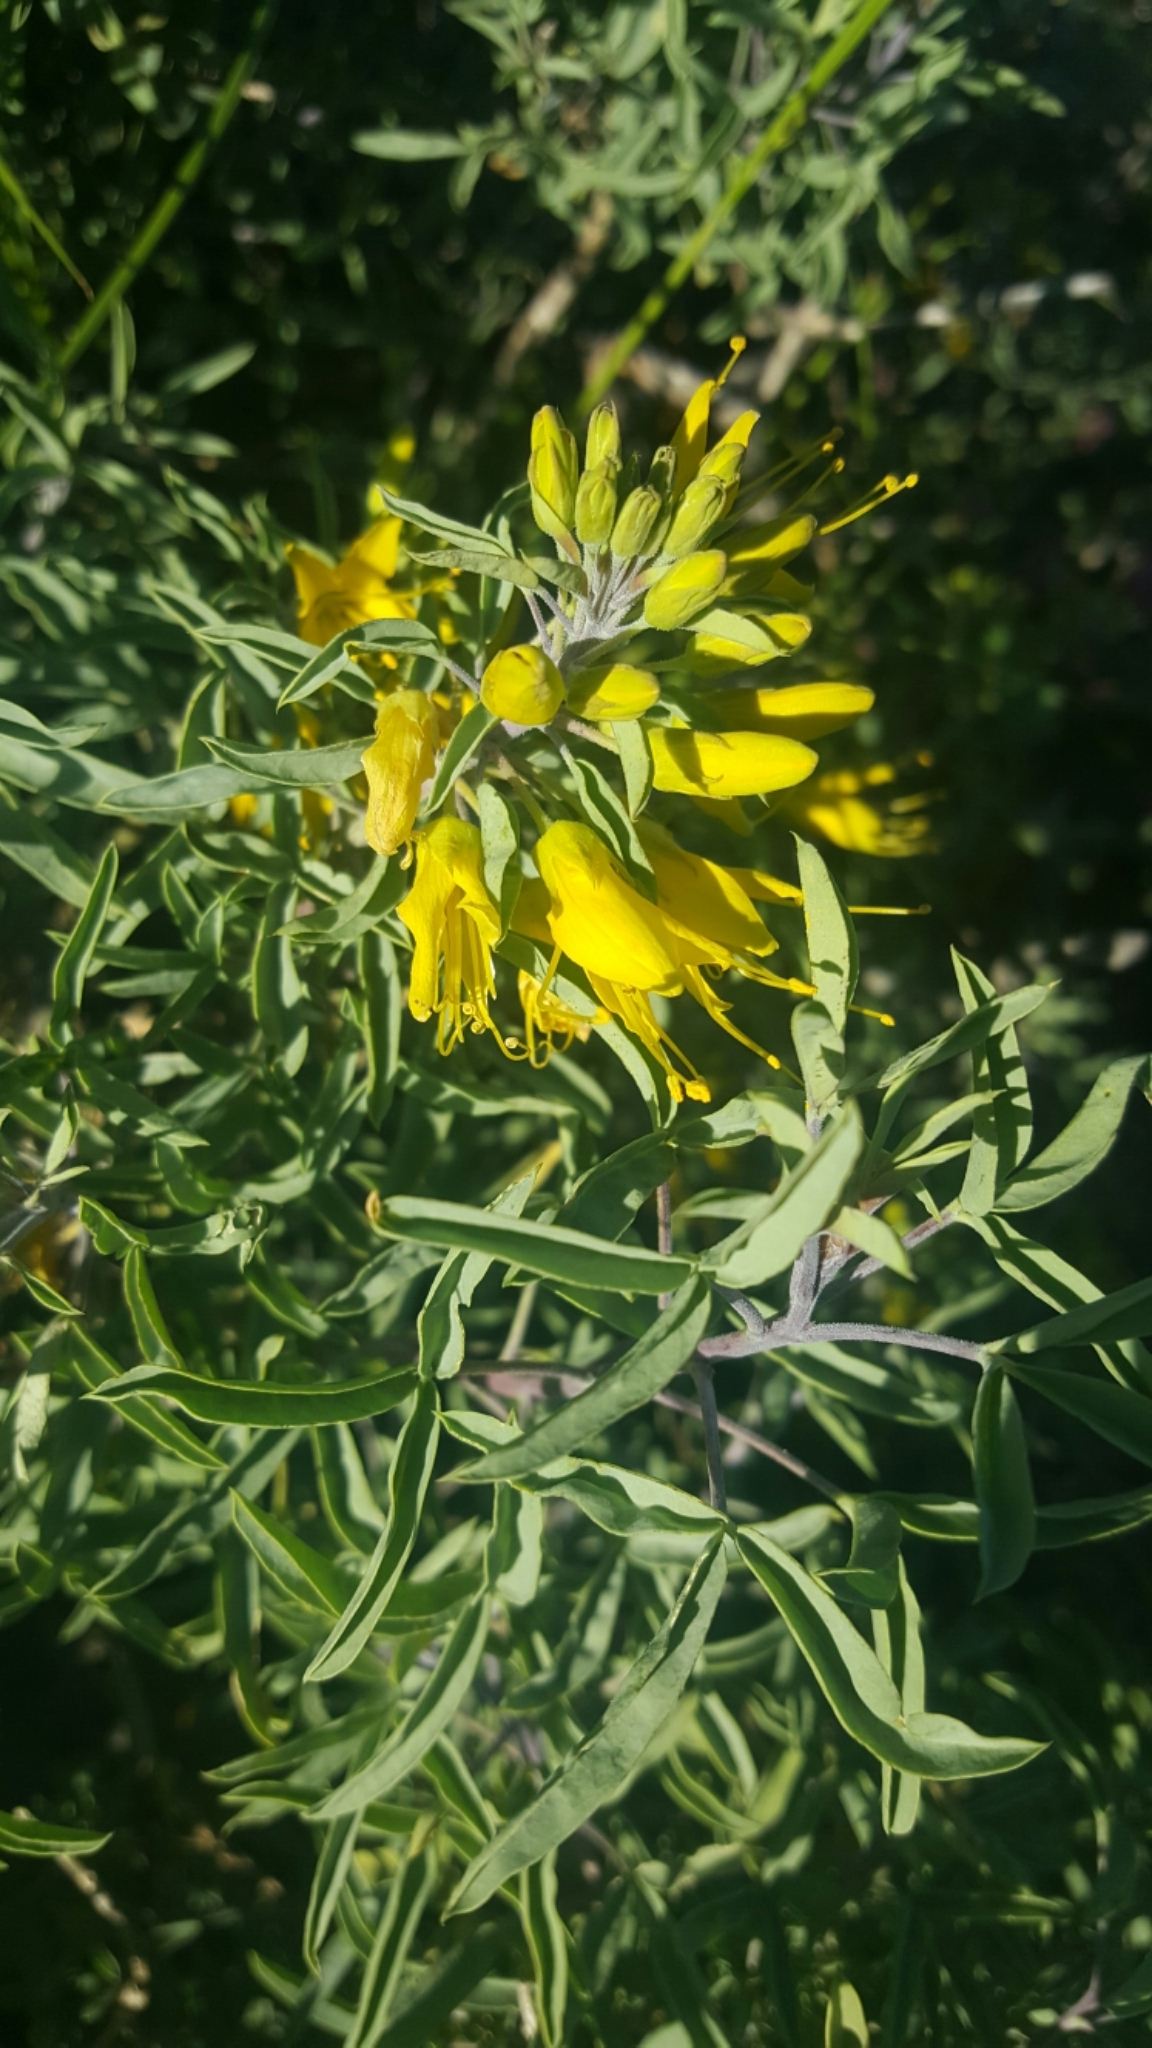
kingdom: Plantae
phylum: Tracheophyta
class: Magnoliopsida
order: Brassicales
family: Cleomaceae
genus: Cleomella
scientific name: Cleomella arborea
